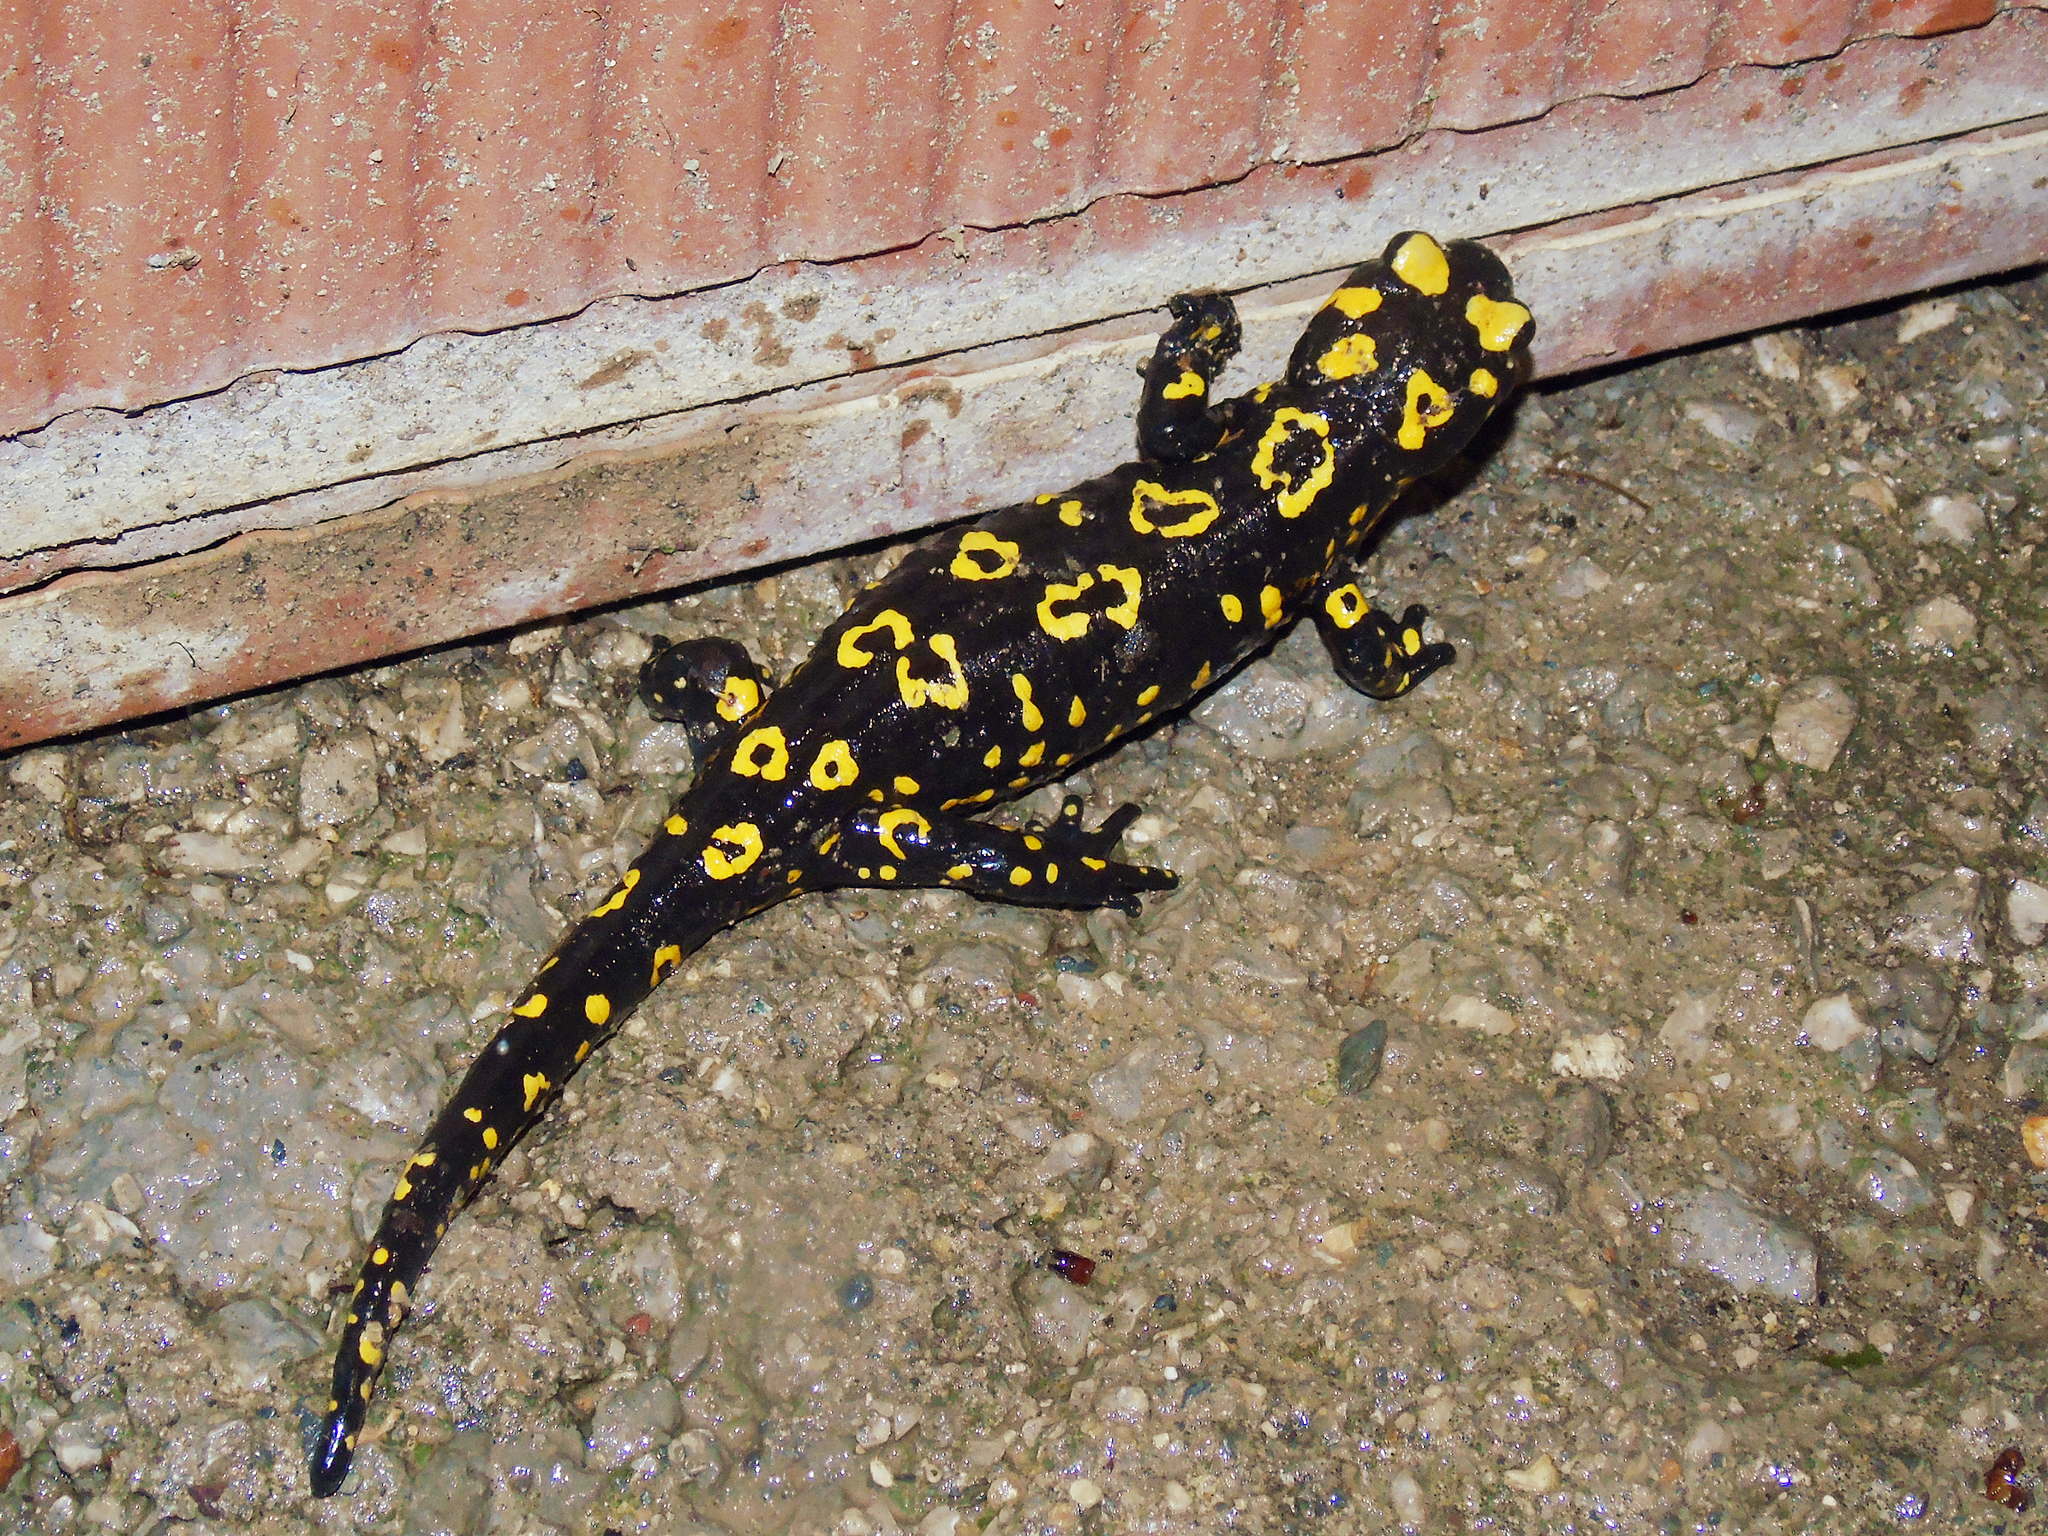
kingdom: Animalia
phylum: Chordata
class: Amphibia
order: Caudata
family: Salamandridae
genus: Salamandra
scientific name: Salamandra infraimmaculata
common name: Near-eastern fire salamander
